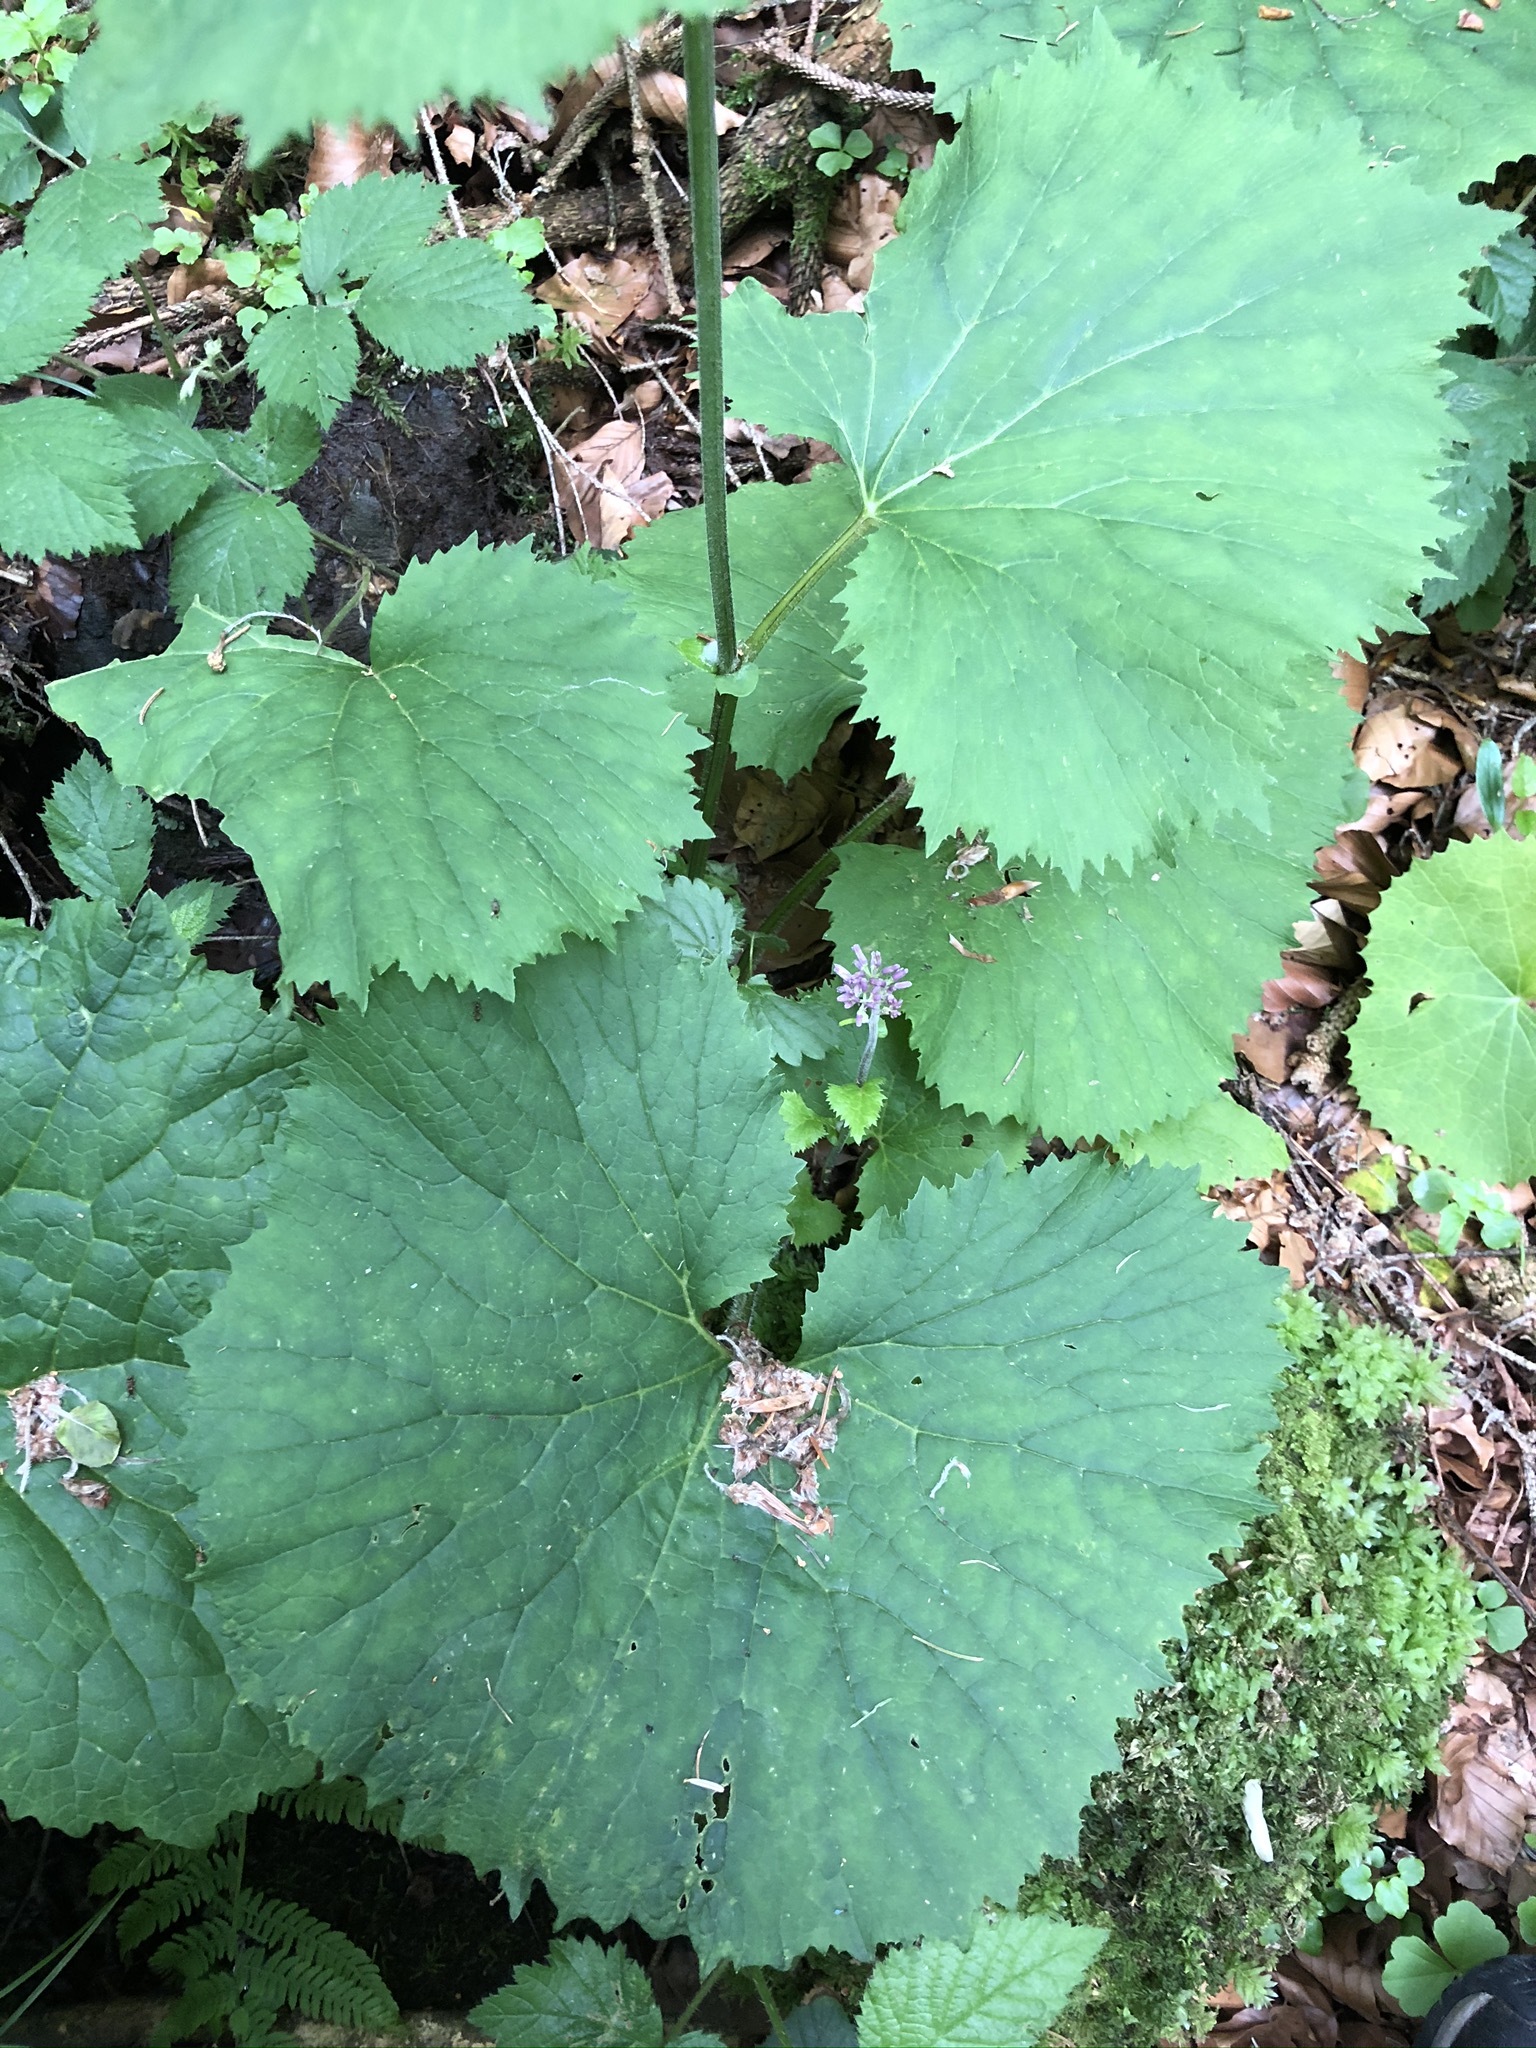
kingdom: Plantae
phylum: Tracheophyta
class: Magnoliopsida
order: Asterales
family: Asteraceae
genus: Adenostyles
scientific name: Adenostyles alliariae
